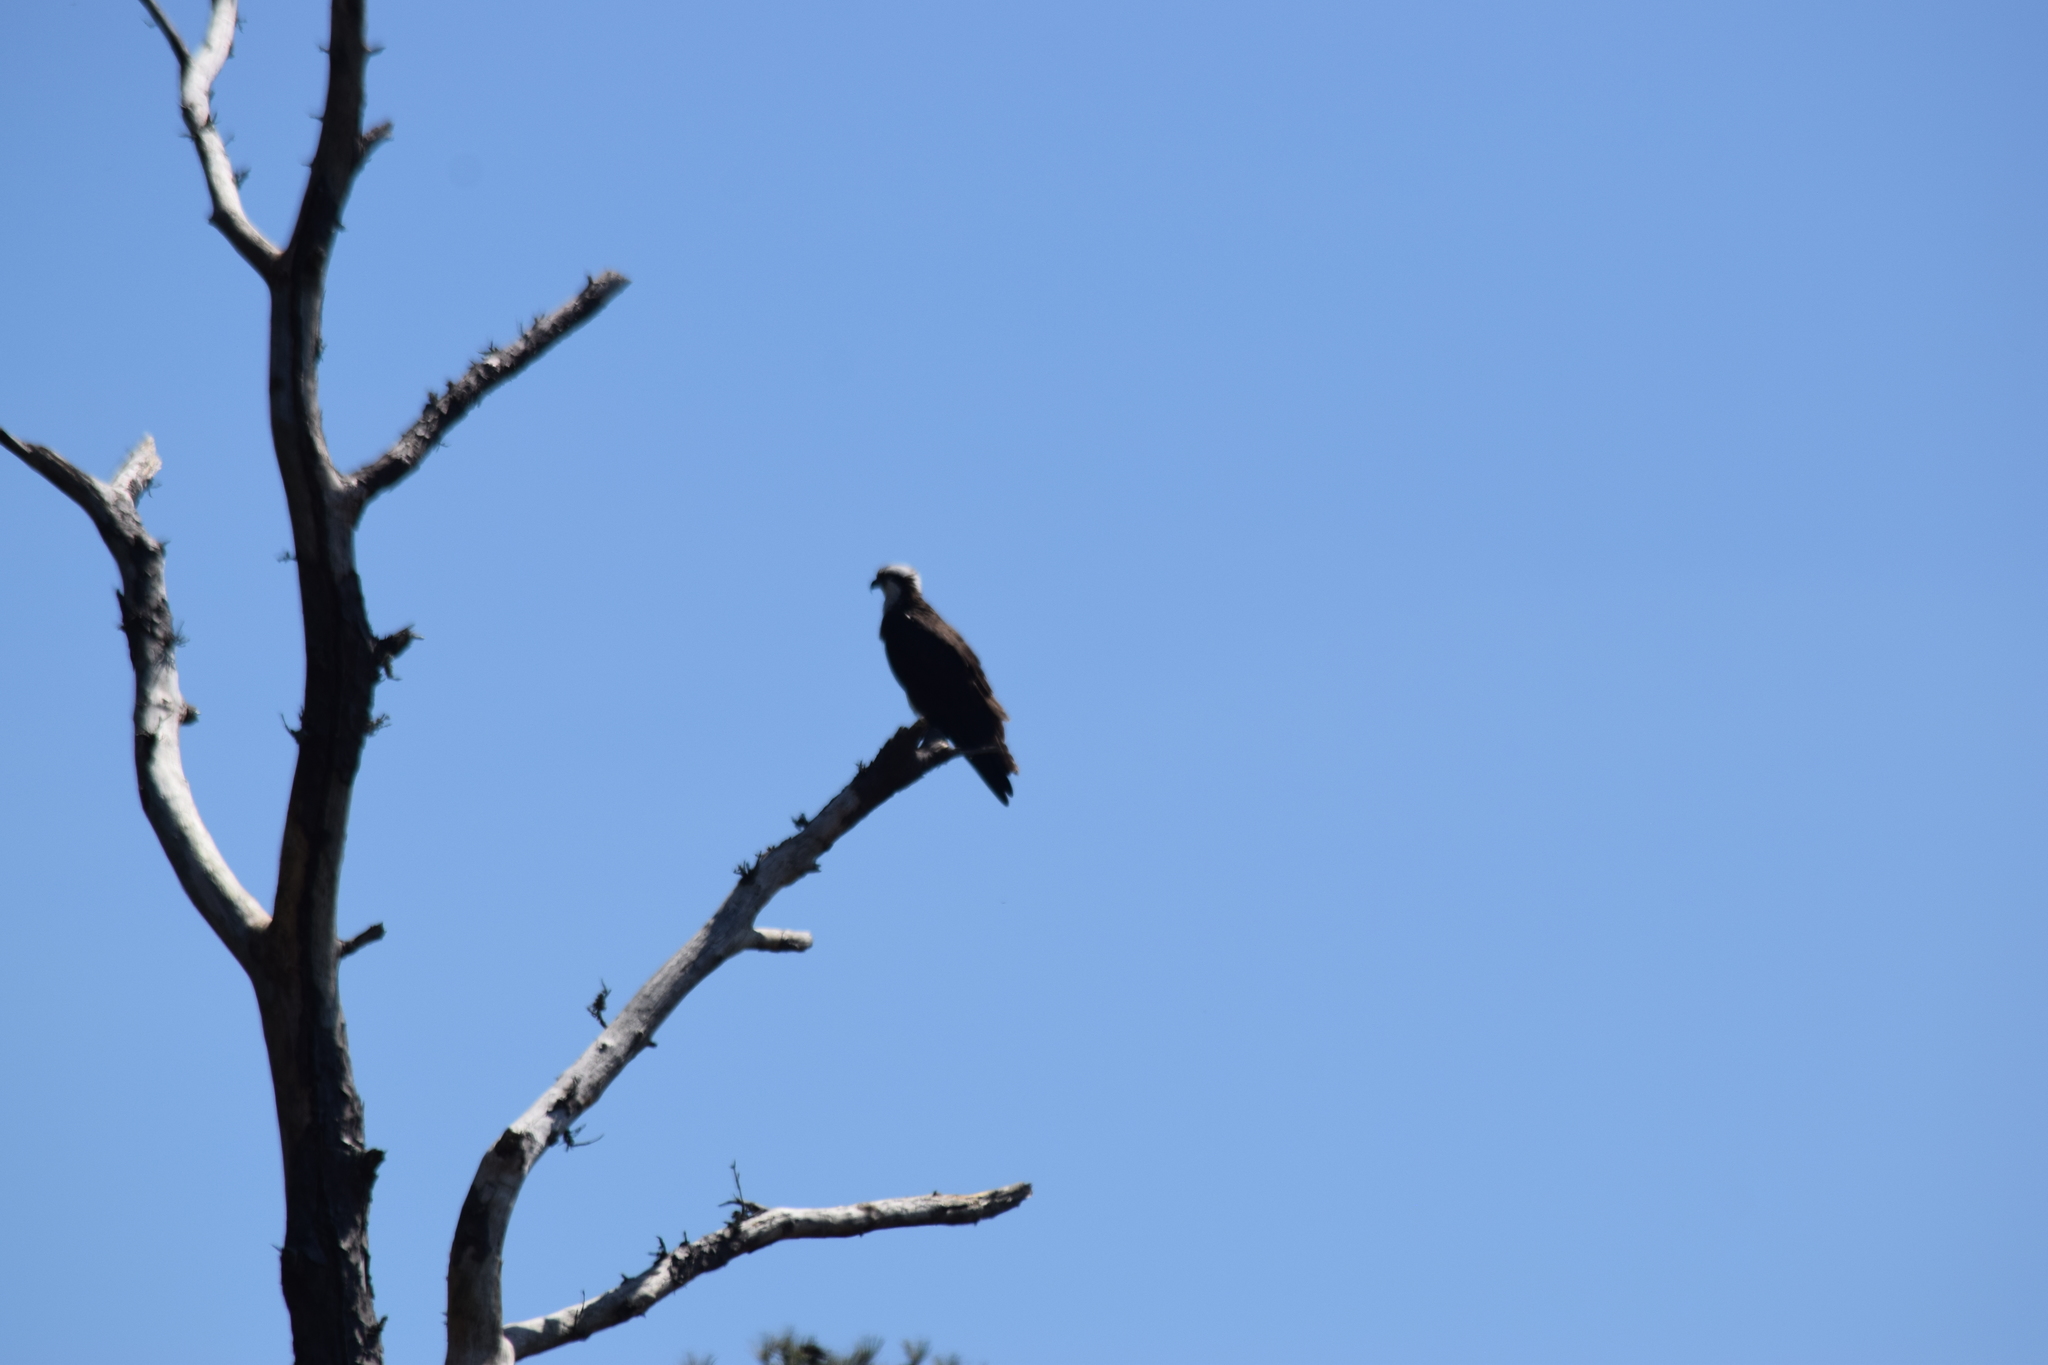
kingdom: Animalia
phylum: Chordata
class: Aves
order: Accipitriformes
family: Pandionidae
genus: Pandion
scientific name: Pandion haliaetus
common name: Osprey
